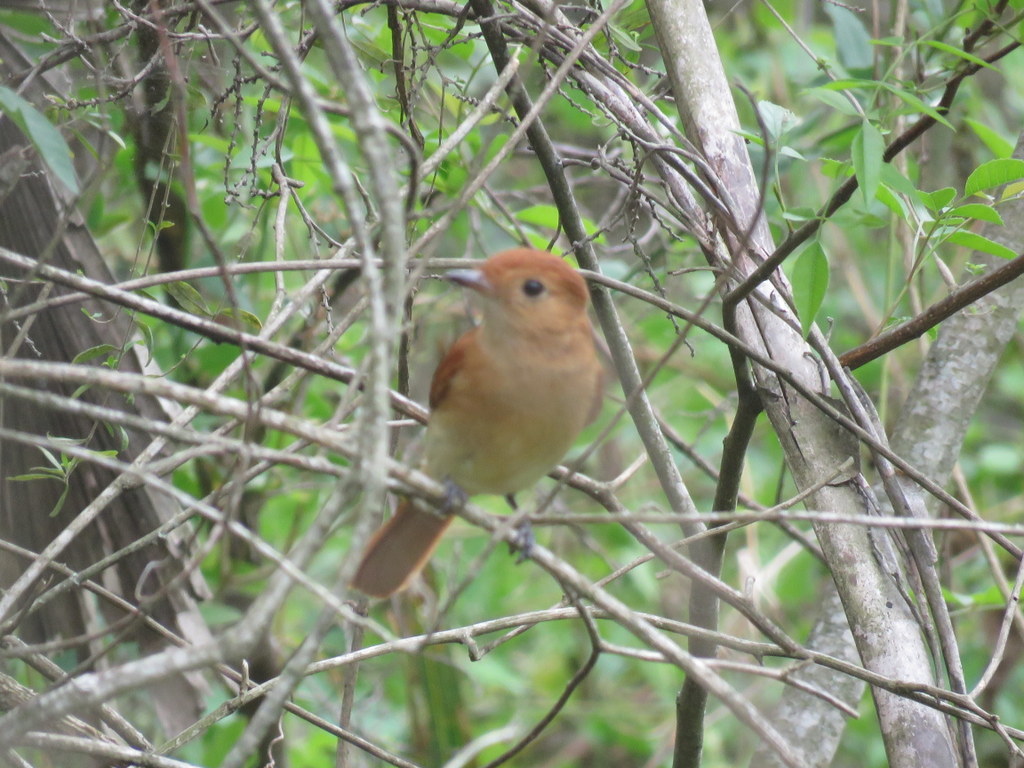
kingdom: Animalia
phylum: Chordata
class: Aves
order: Passeriformes
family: Tyrannidae
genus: Casiornis
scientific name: Casiornis rufus
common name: Rufous casiornis
